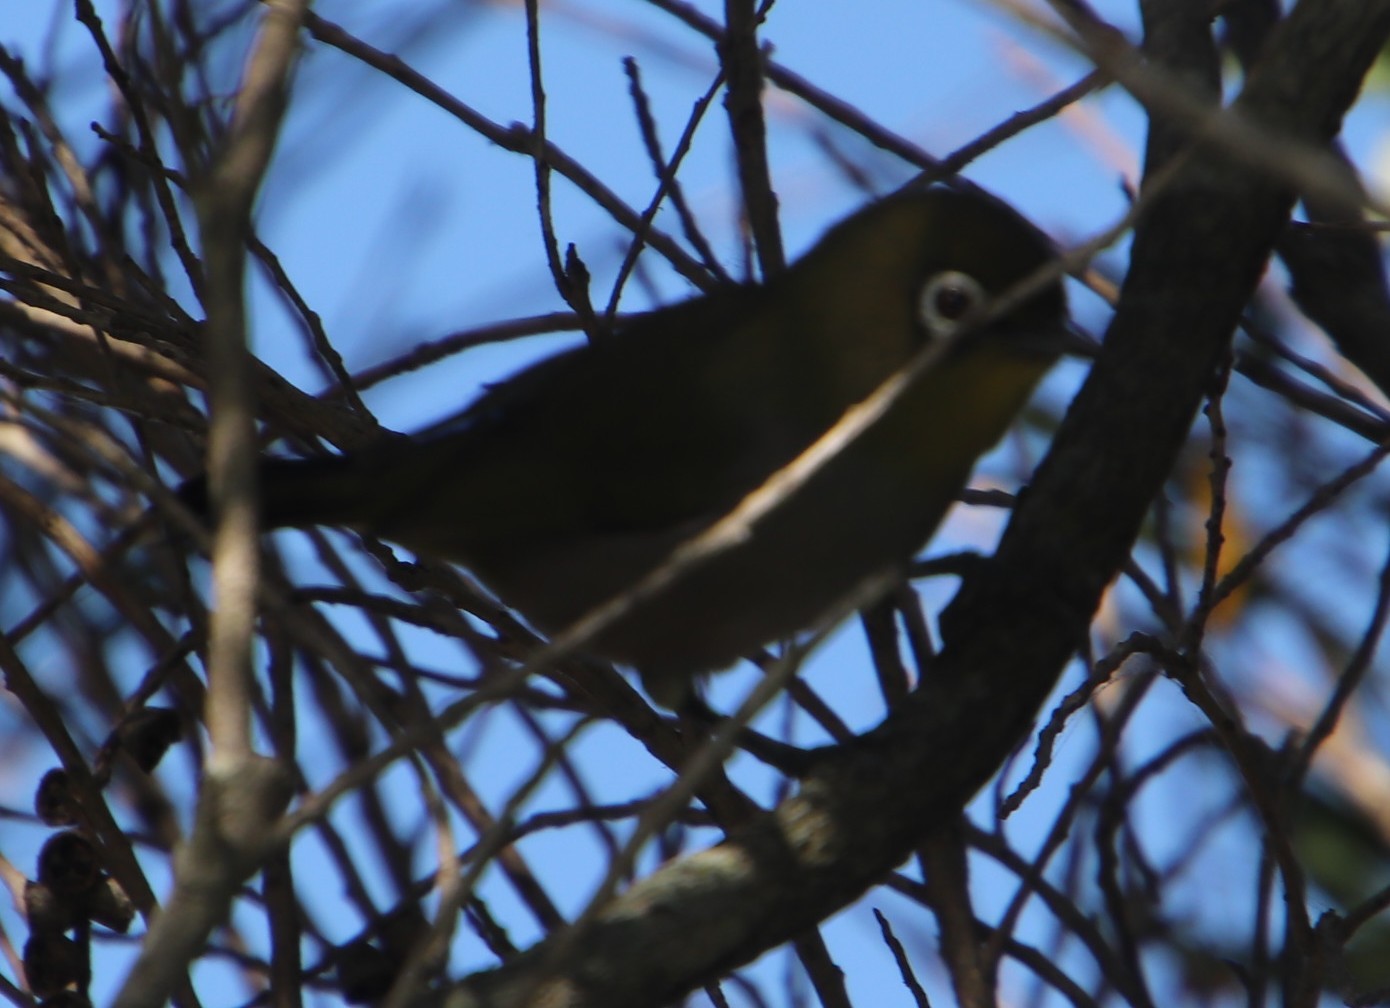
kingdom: Animalia
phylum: Chordata
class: Aves
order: Passeriformes
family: Zosteropidae
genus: Zosterops
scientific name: Zosterops virens
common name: Cape white-eye
